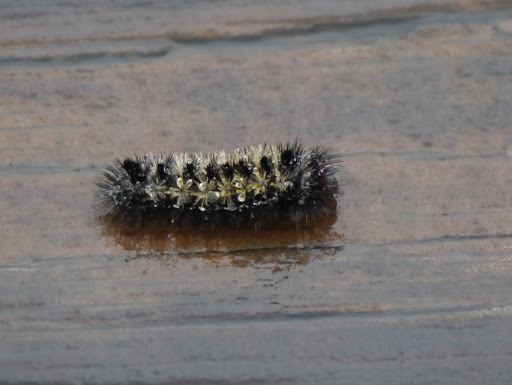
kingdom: Animalia
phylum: Arthropoda
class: Insecta
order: Lepidoptera
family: Erebidae
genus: Ctenucha
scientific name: Ctenucha virginica
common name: Virginia ctenucha moth
